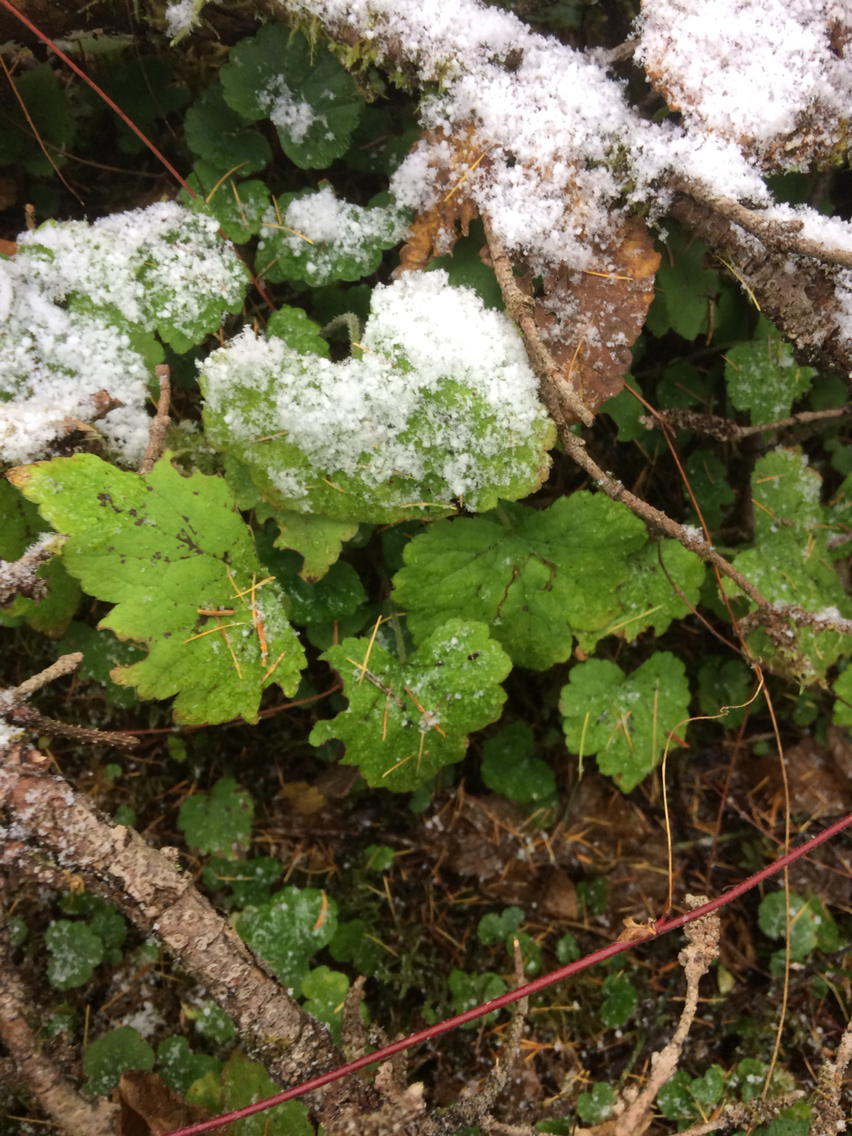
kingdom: Plantae
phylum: Tracheophyta
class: Magnoliopsida
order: Saxifragales
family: Saxifragaceae
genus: Tiarella
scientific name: Tiarella stolonifera
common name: Stoloniferous foamflower
